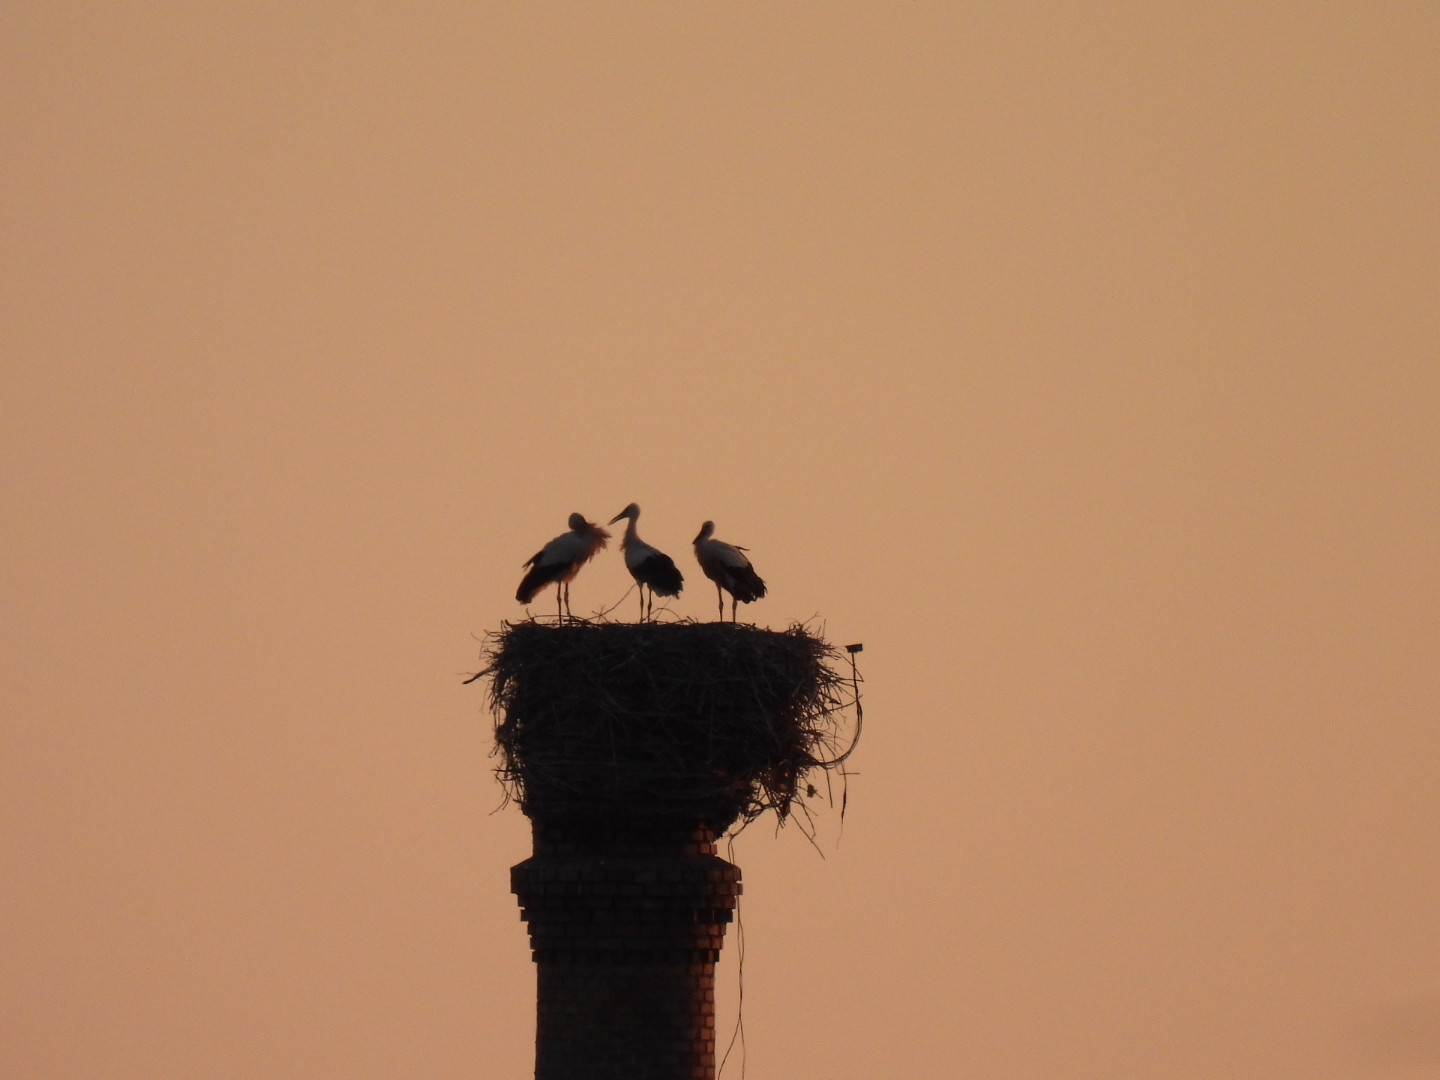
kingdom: Animalia
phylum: Chordata
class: Aves
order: Ciconiiformes
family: Ciconiidae
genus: Ciconia
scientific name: Ciconia ciconia
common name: White stork
